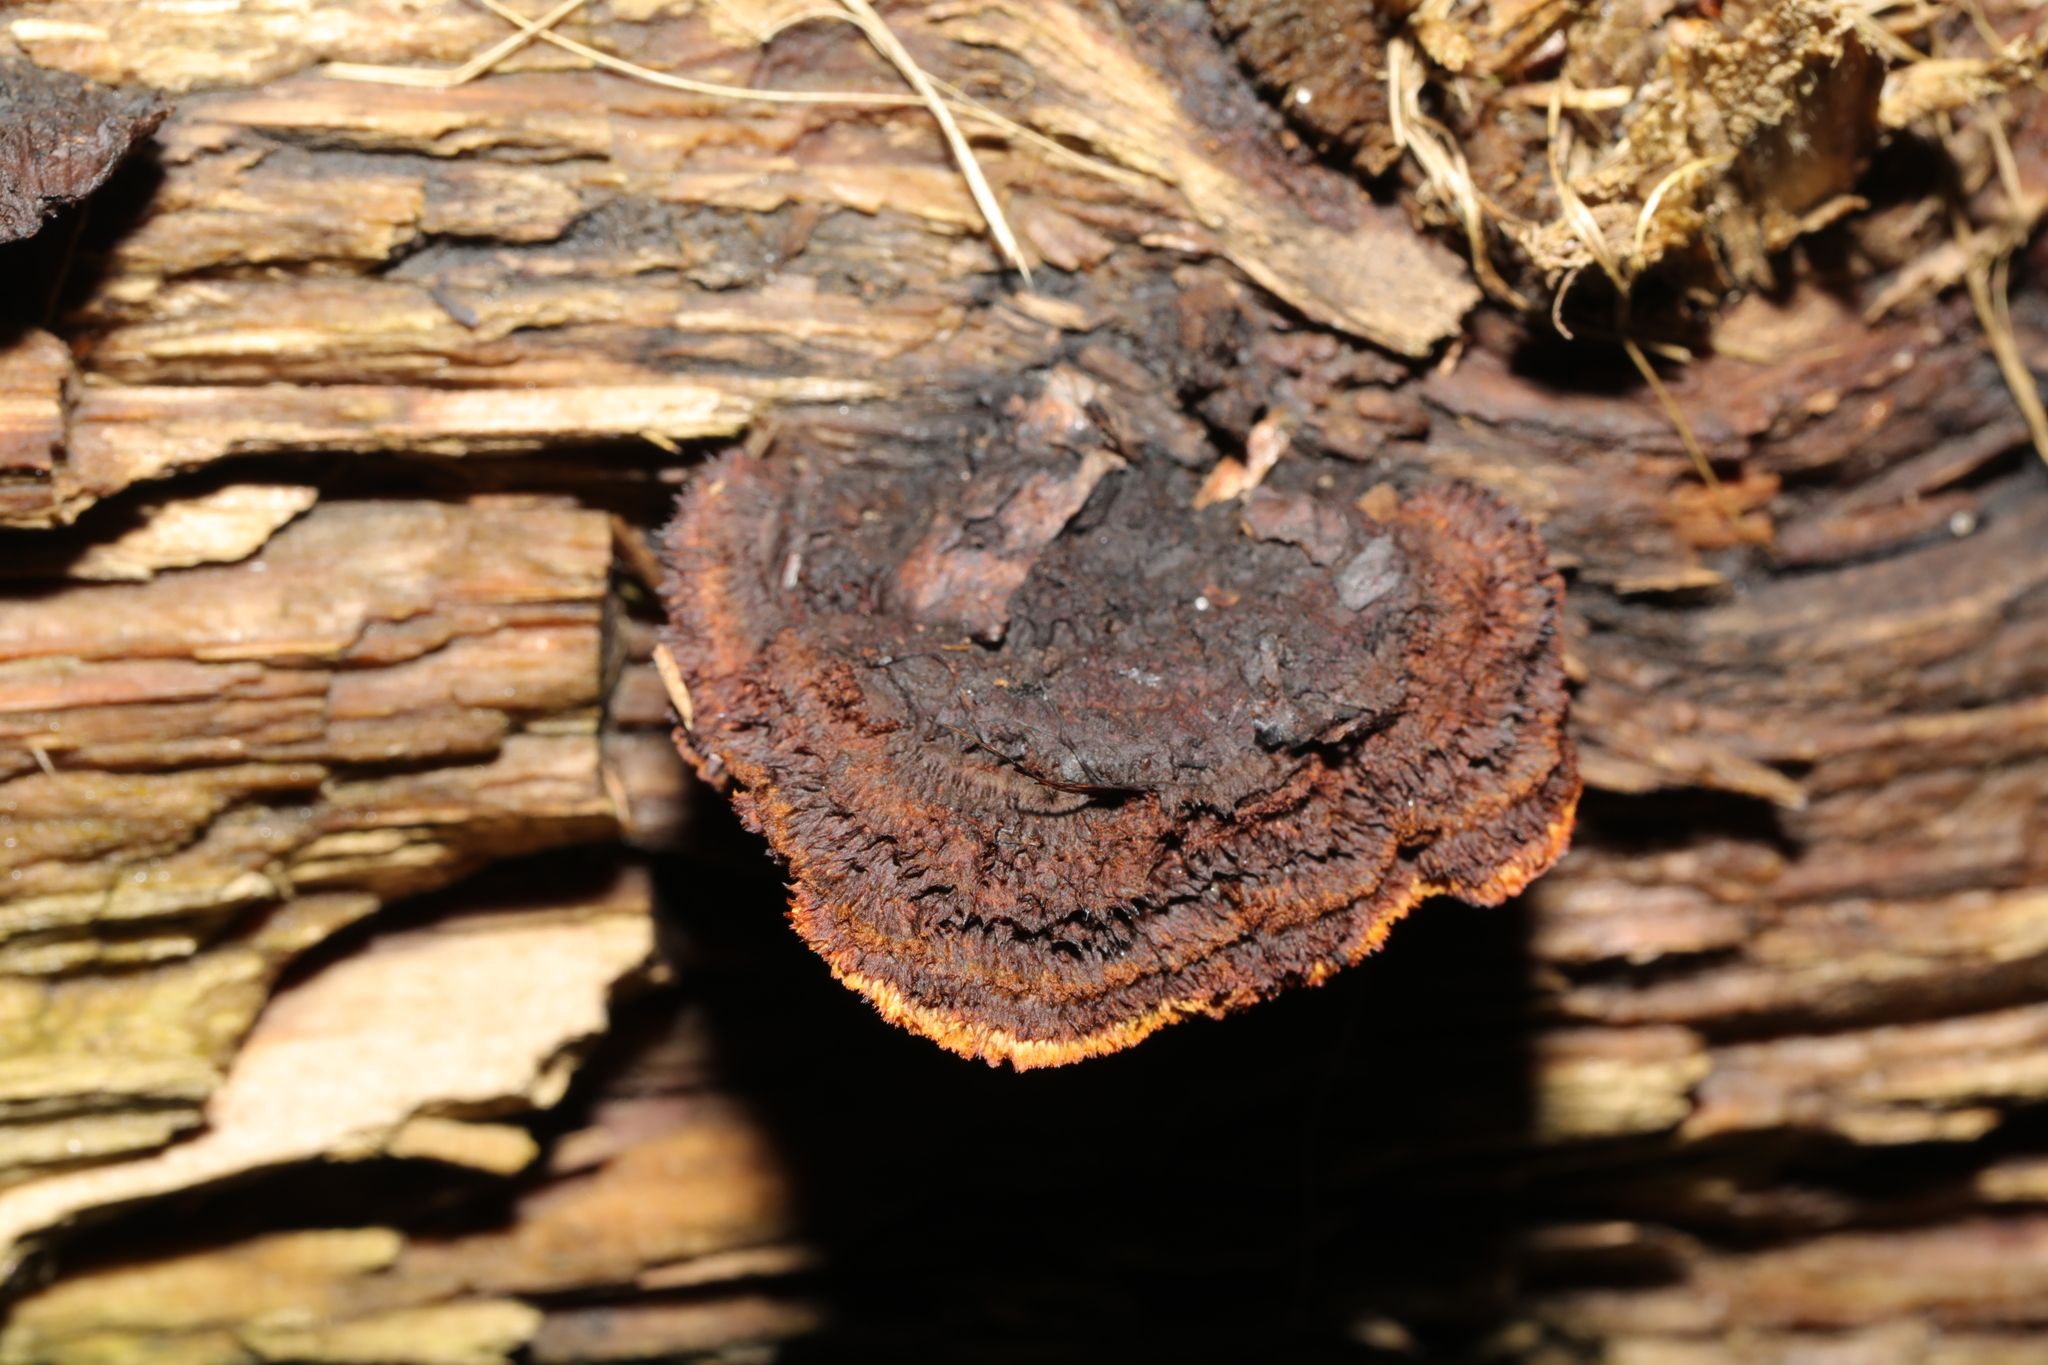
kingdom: Fungi
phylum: Basidiomycota
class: Agaricomycetes
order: Gloeophyllales
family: Gloeophyllaceae
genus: Gloeophyllum
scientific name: Gloeophyllum sepiarium
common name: Conifer mazegill
